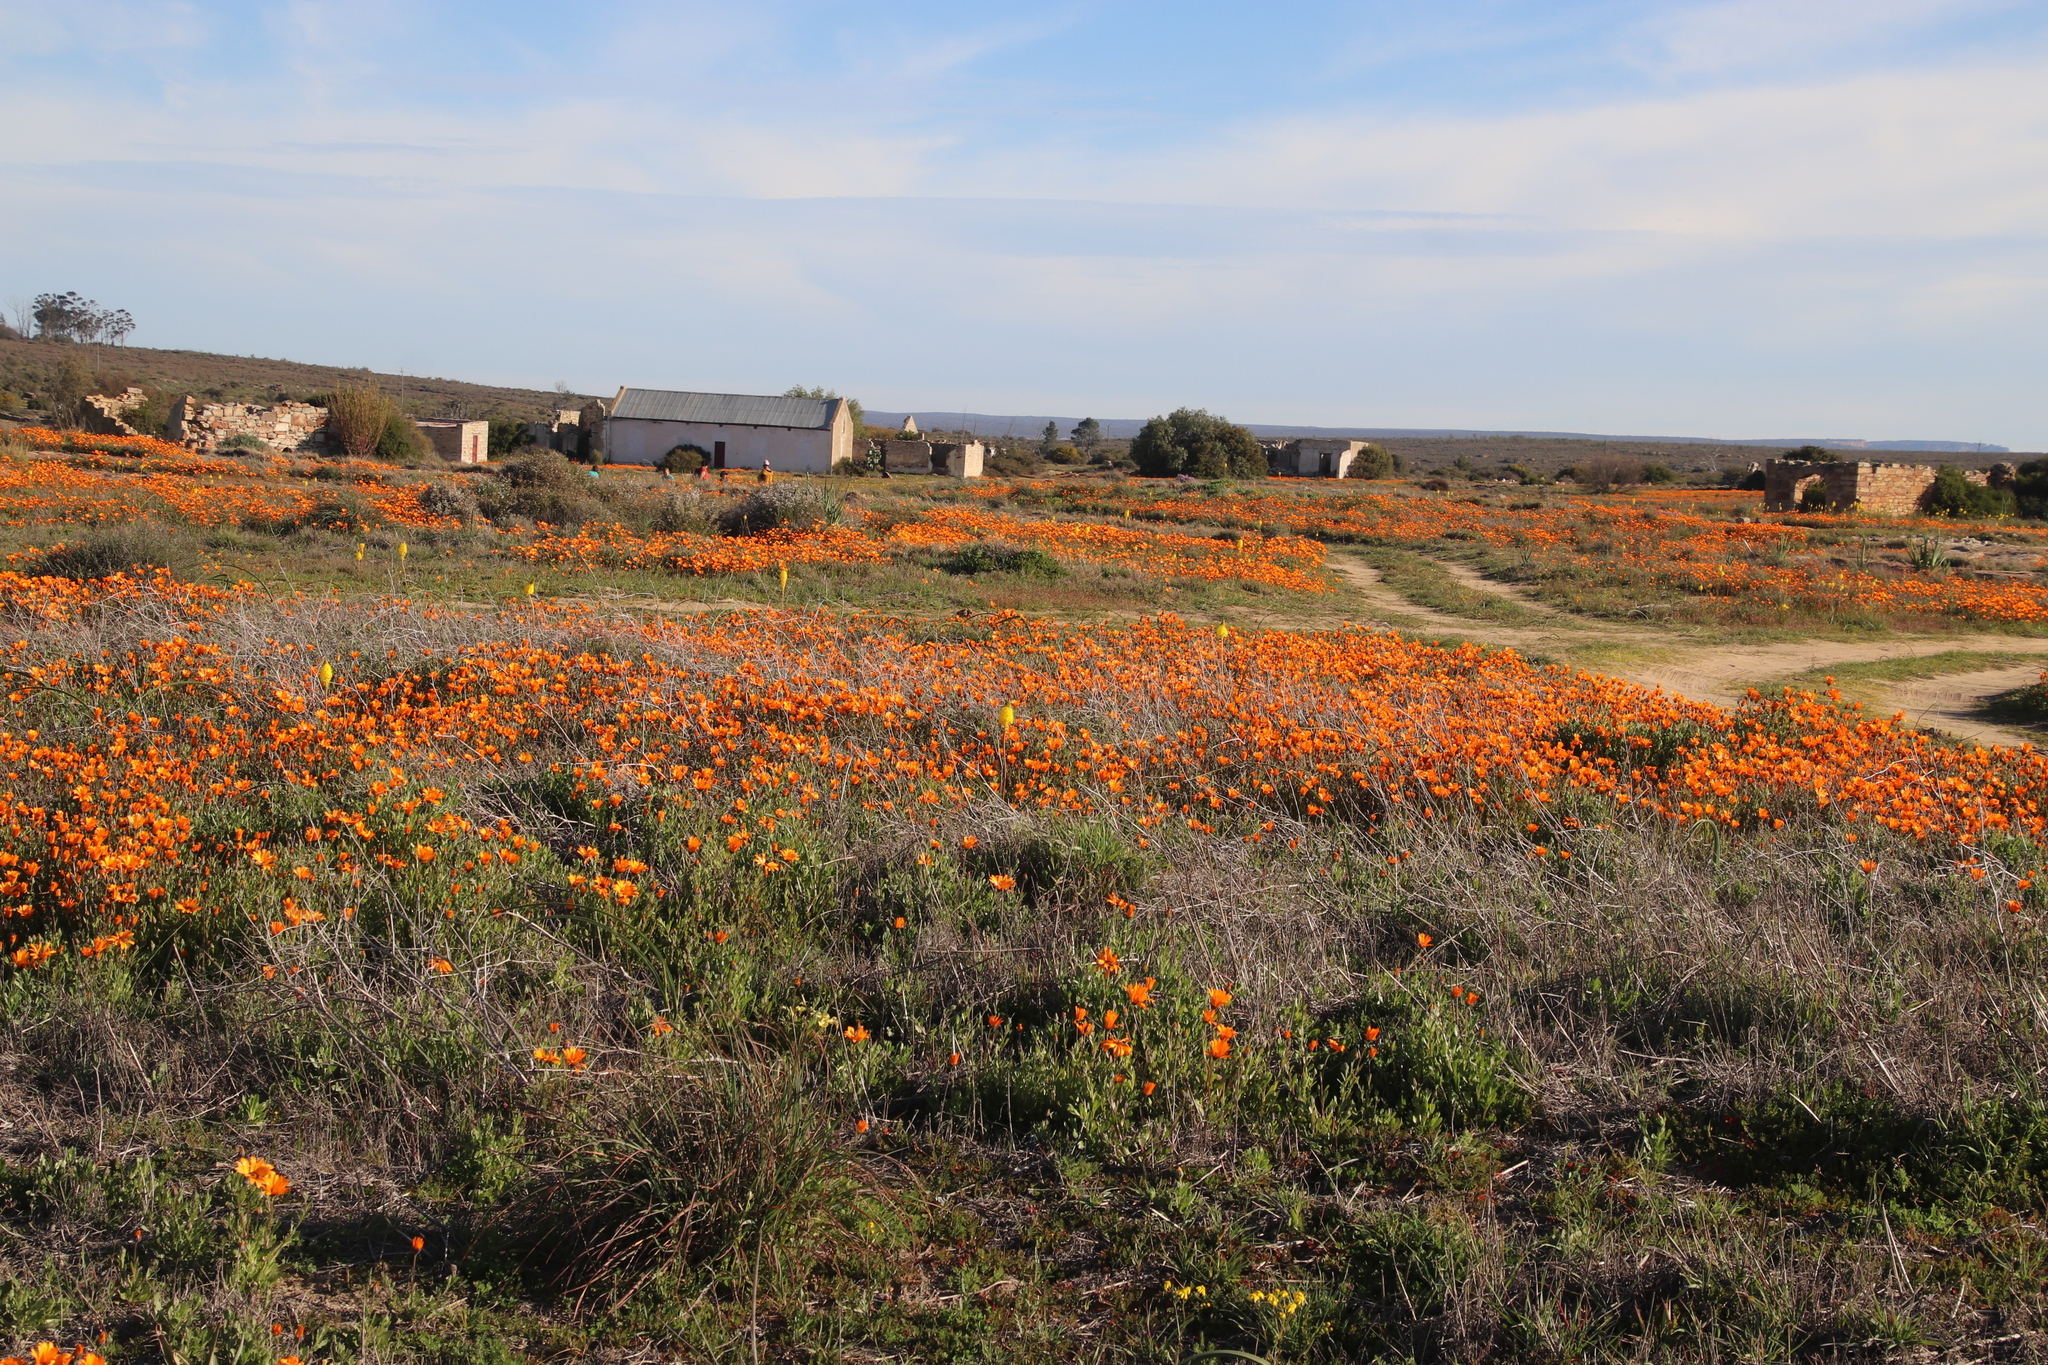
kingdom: Plantae
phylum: Tracheophyta
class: Magnoliopsida
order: Asterales
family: Asteraceae
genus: Dimorphotheca
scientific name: Dimorphotheca sinuata
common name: Glandular cape marigold
